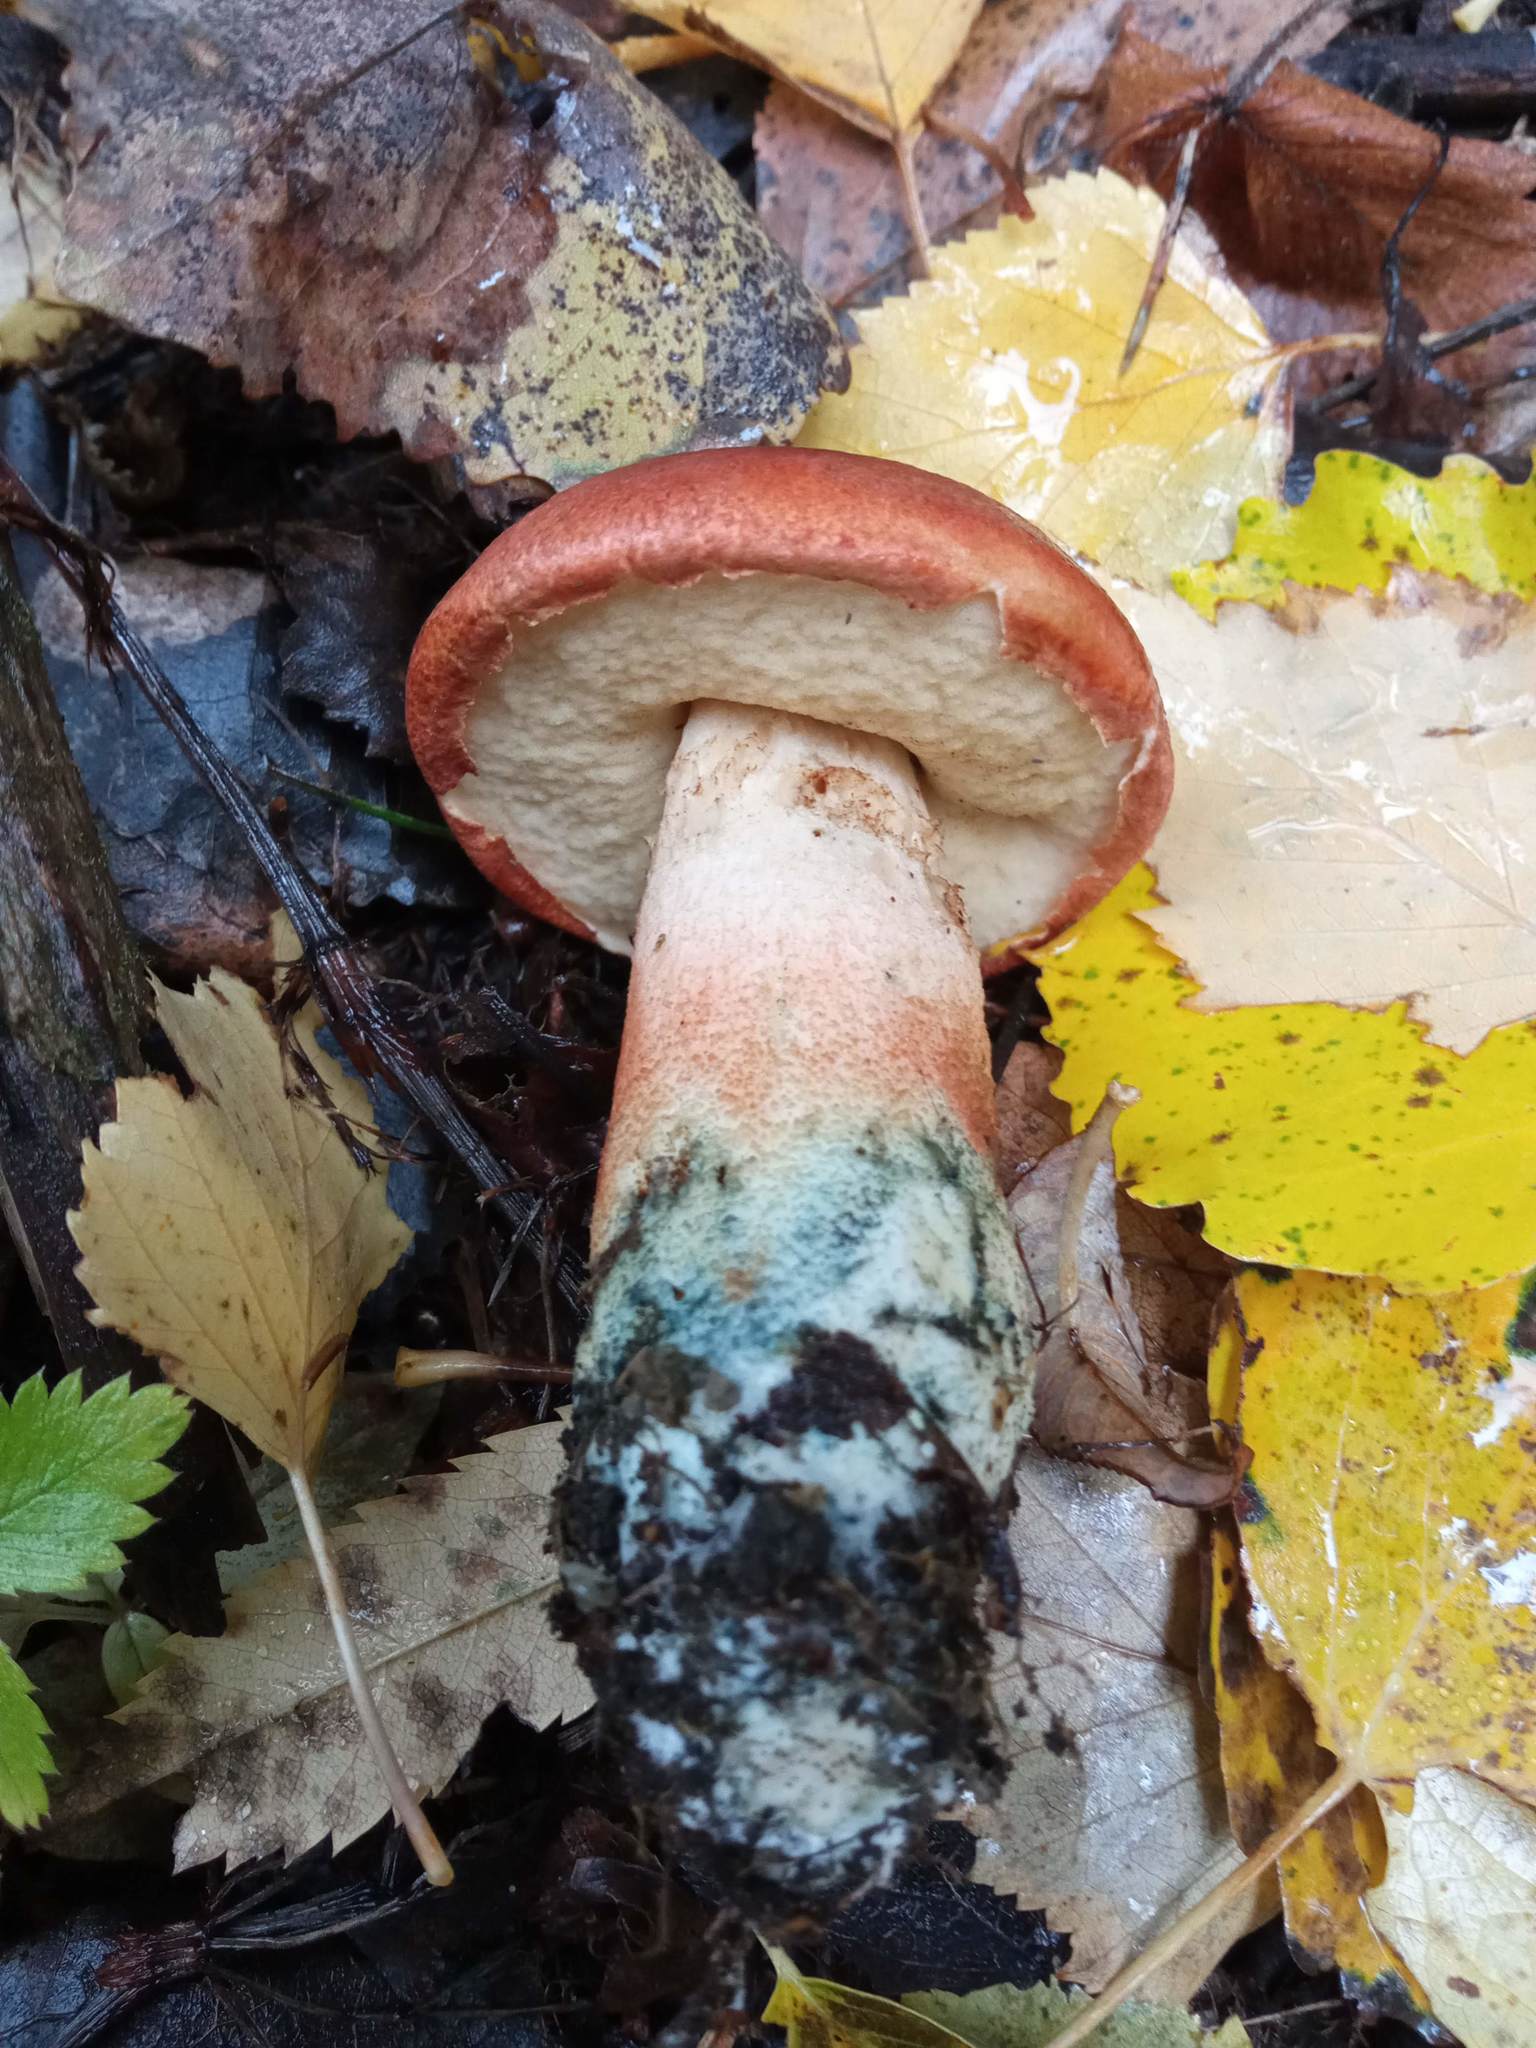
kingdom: Fungi
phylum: Basidiomycota
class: Agaricomycetes
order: Boletales
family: Boletaceae
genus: Leccinum
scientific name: Leccinum aurantiacum
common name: Orange bolete
